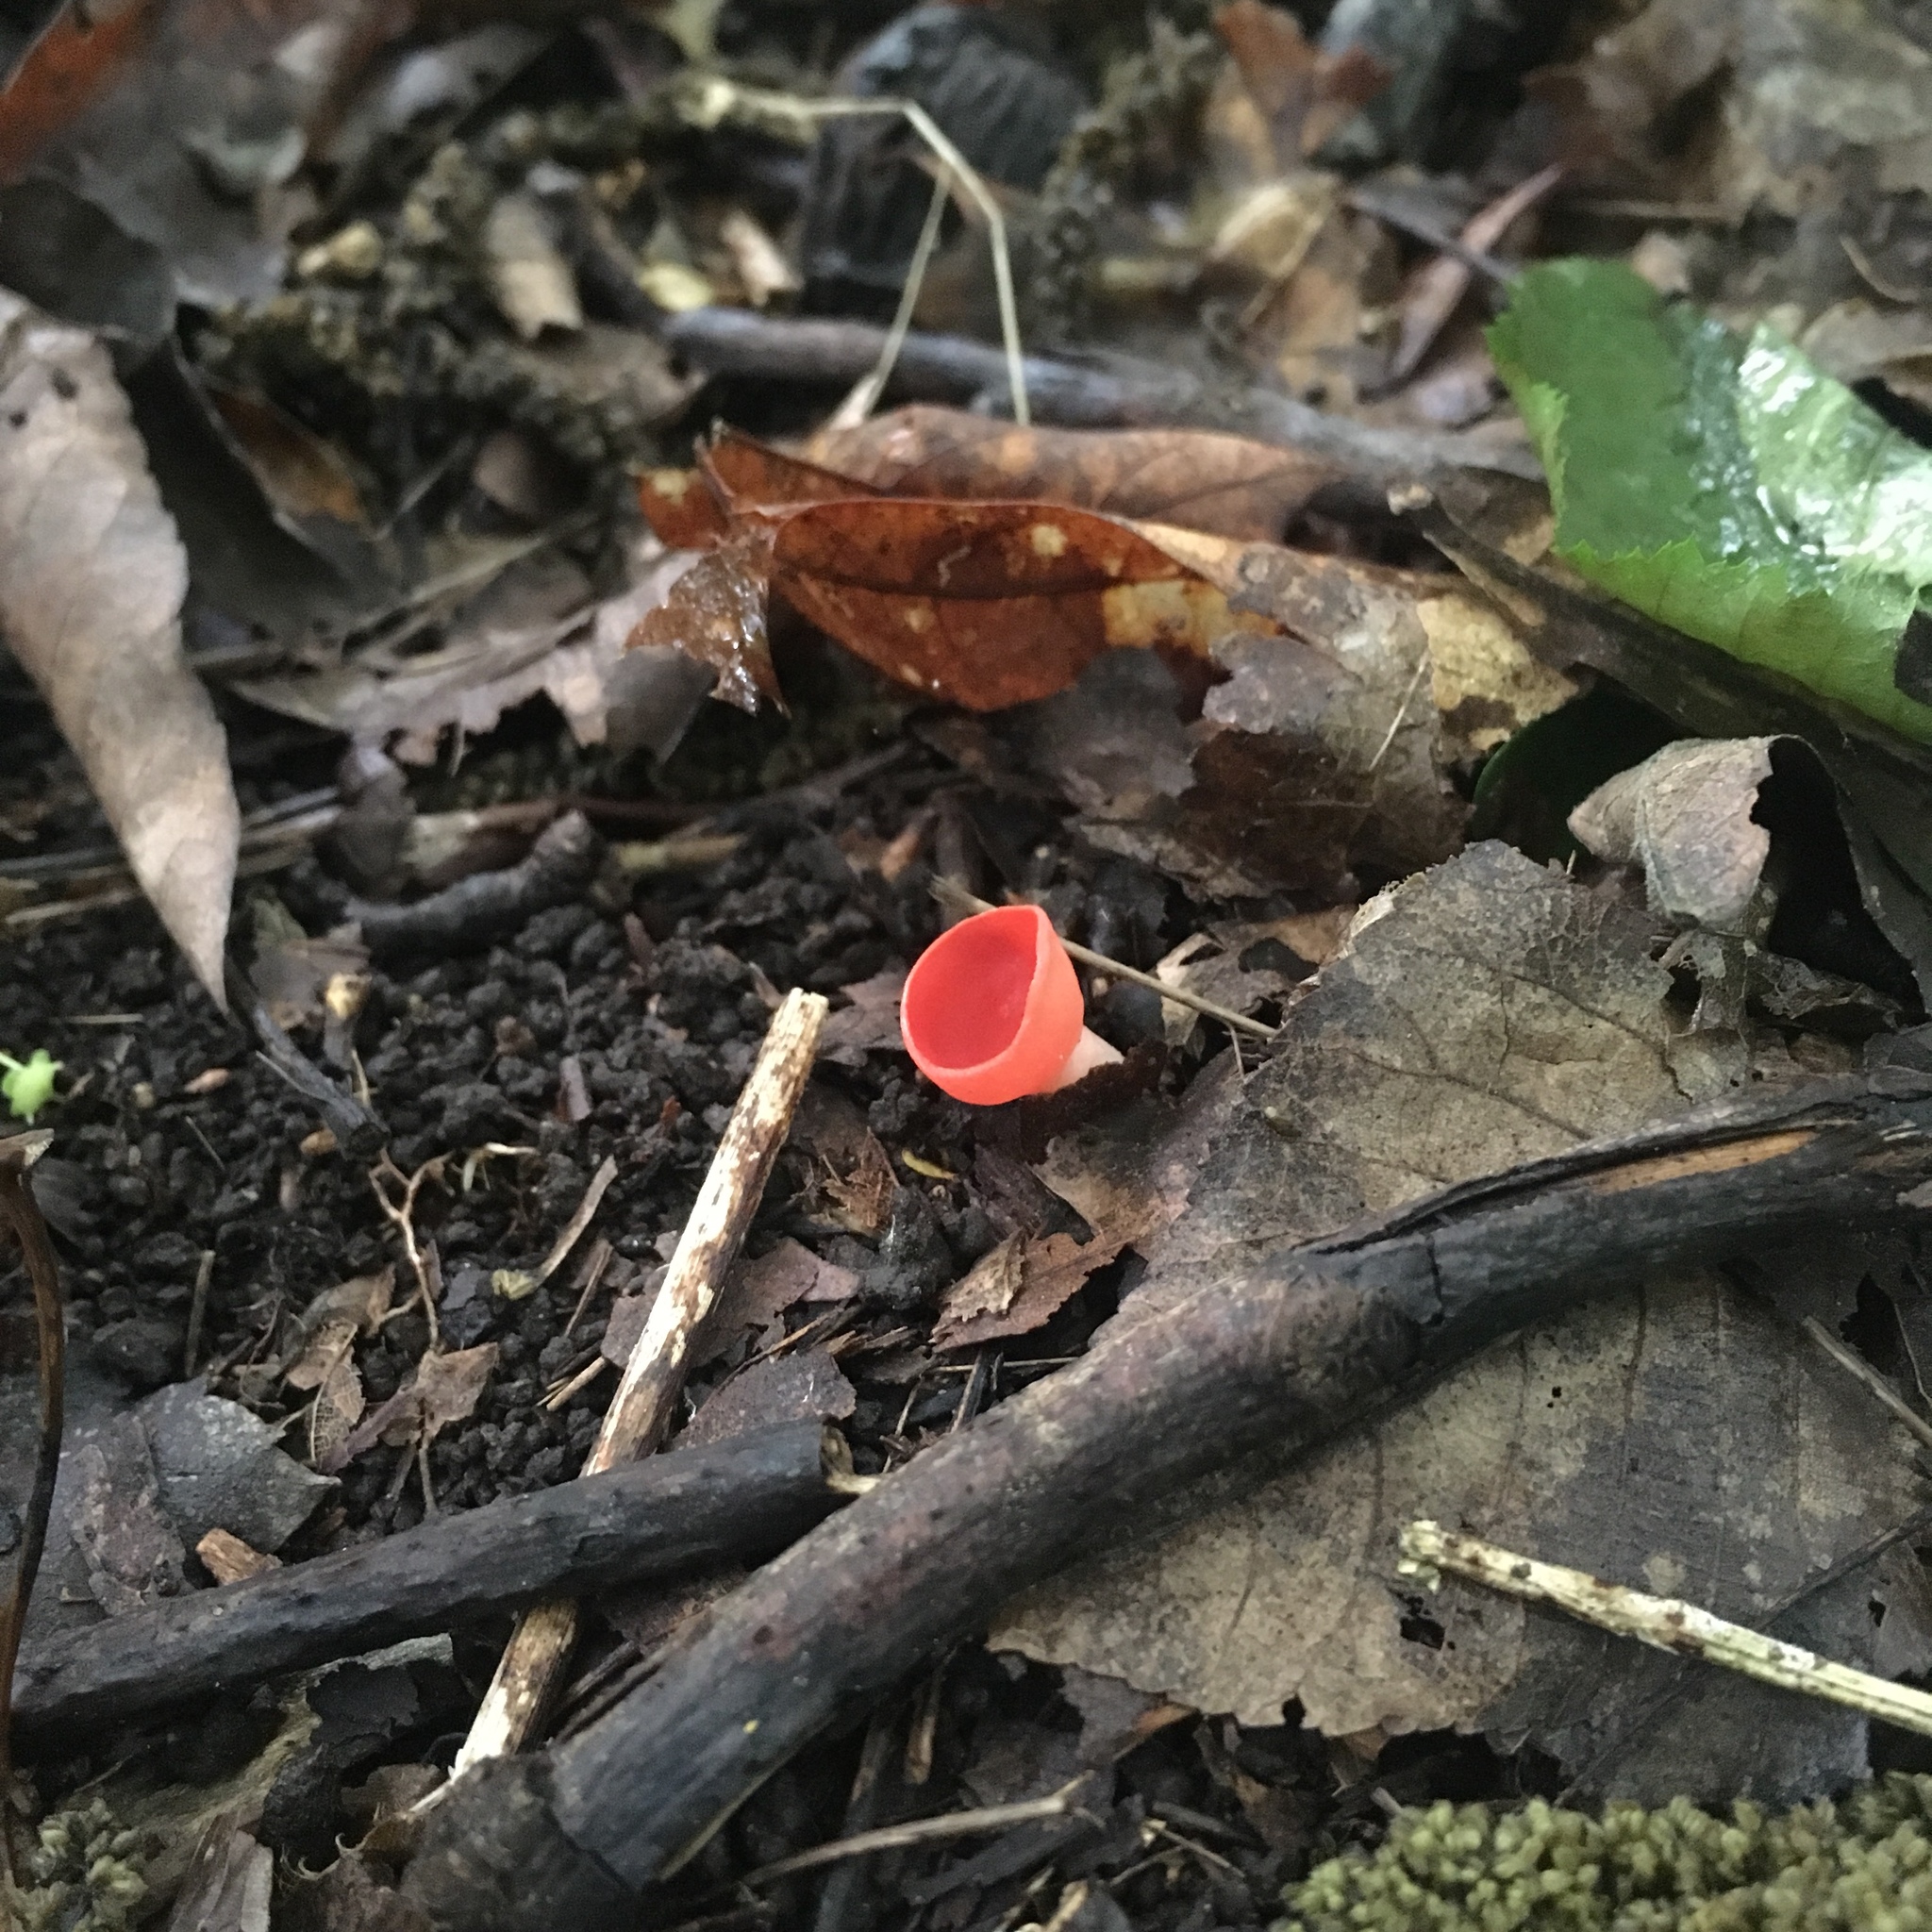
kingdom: Fungi
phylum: Ascomycota
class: Pezizomycetes
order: Pezizales
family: Sarcoscyphaceae
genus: Sarcoscypha
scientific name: Sarcoscypha occidentalis
